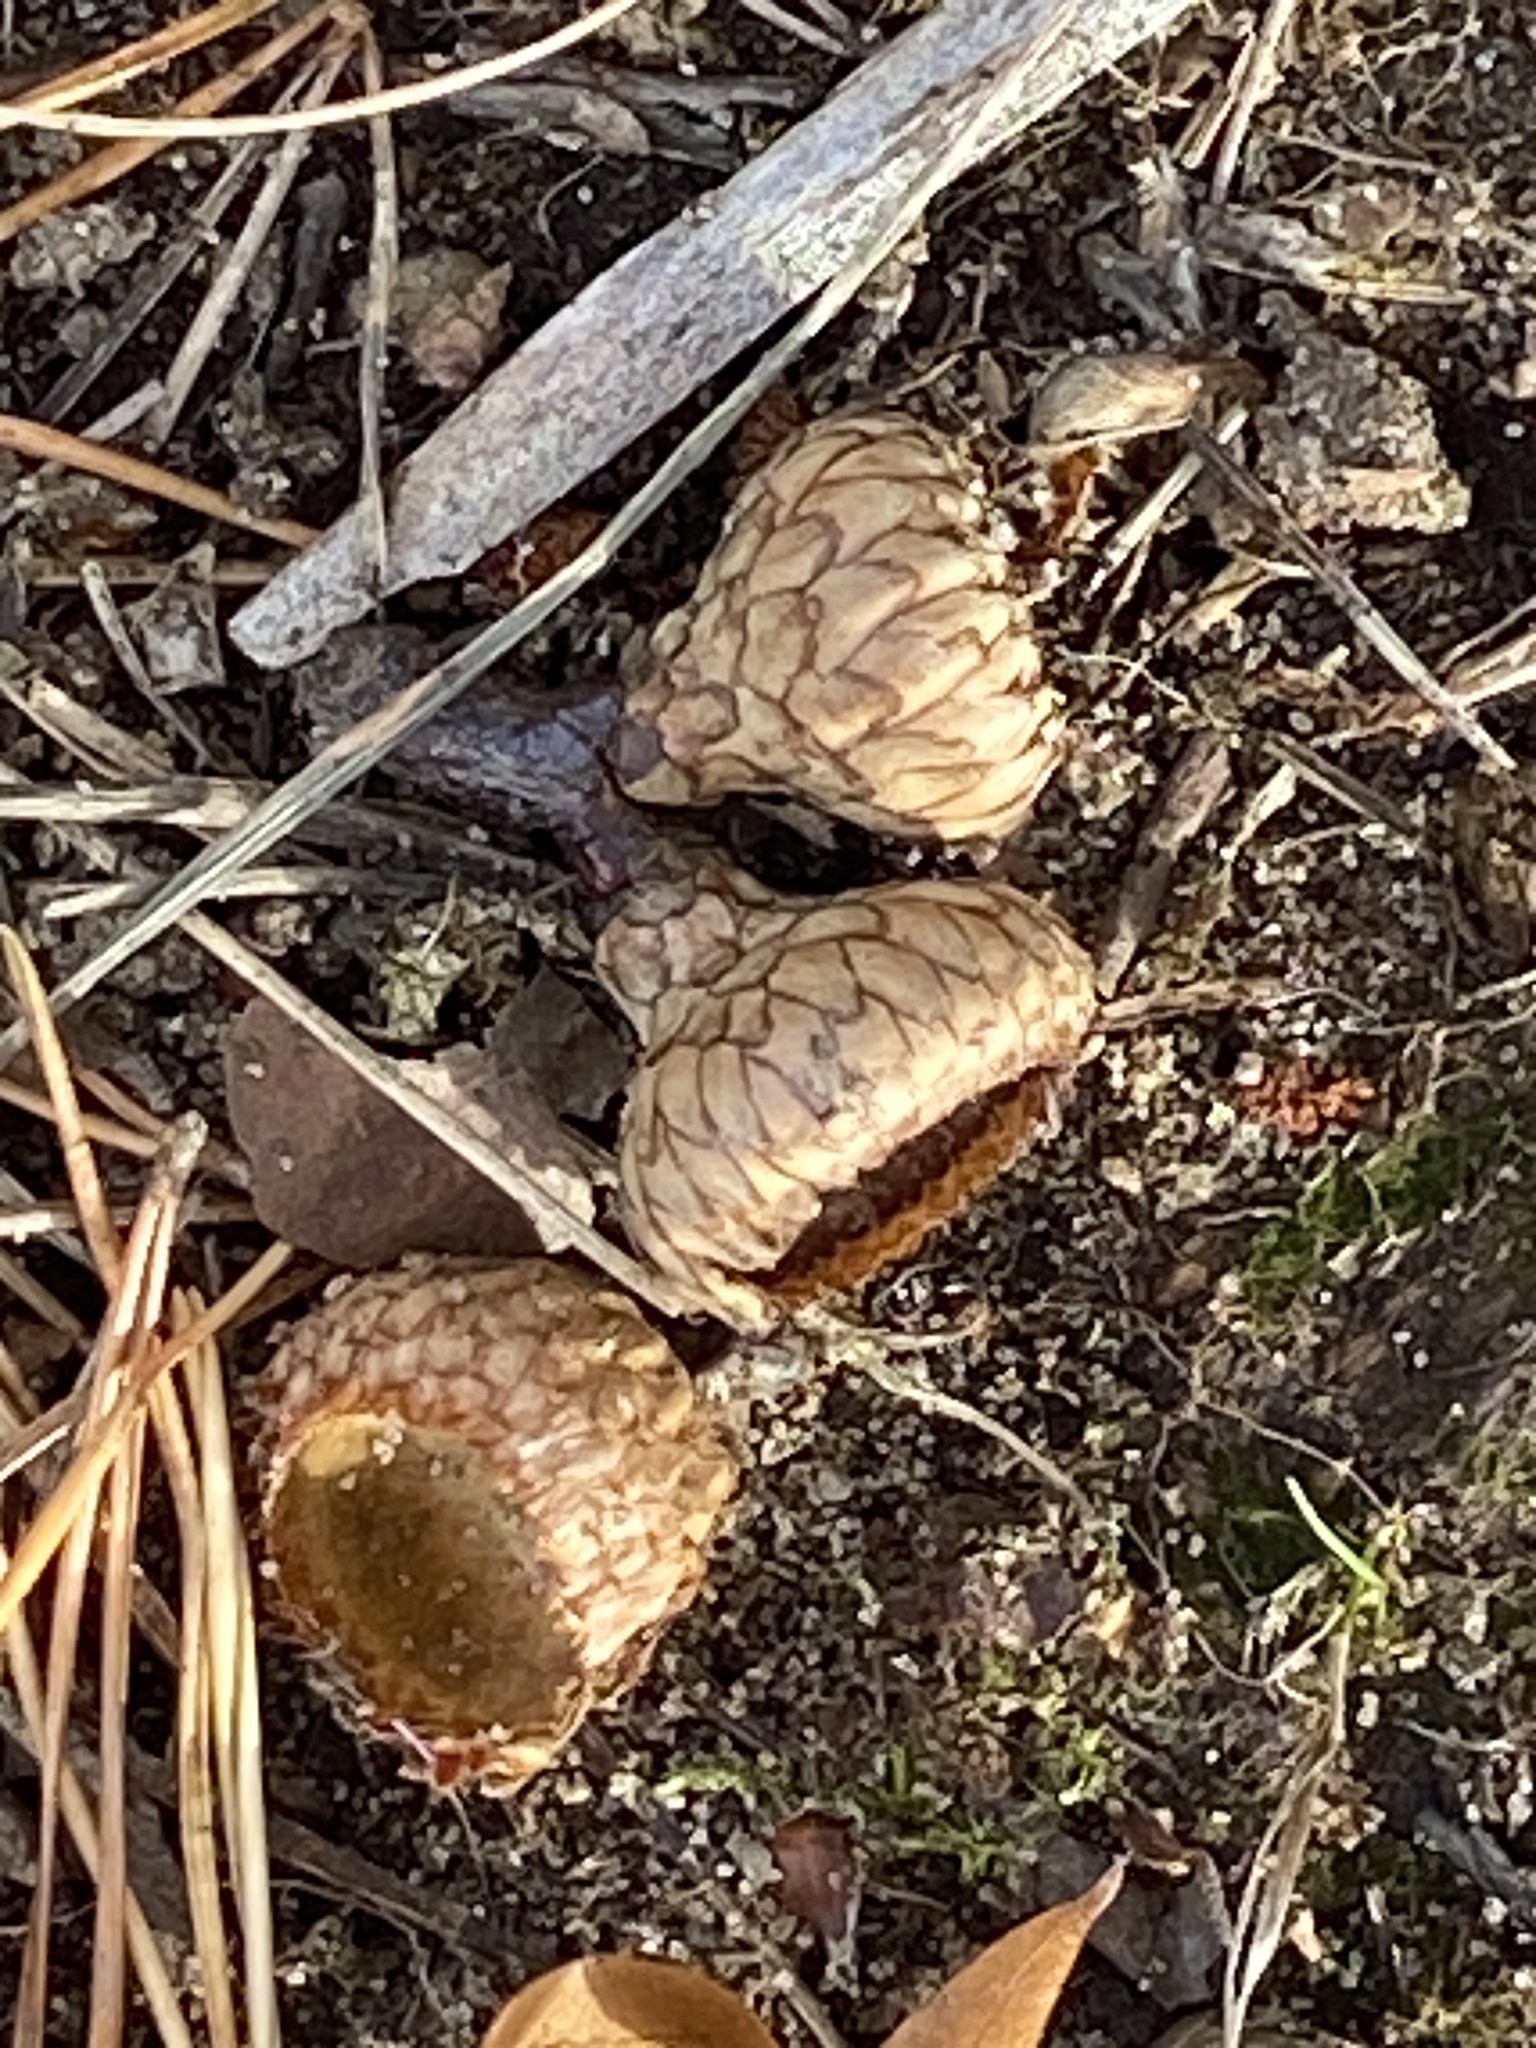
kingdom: Plantae
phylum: Tracheophyta
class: Magnoliopsida
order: Fagales
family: Fagaceae
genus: Quercus
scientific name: Quercus velutina
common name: Black oak
